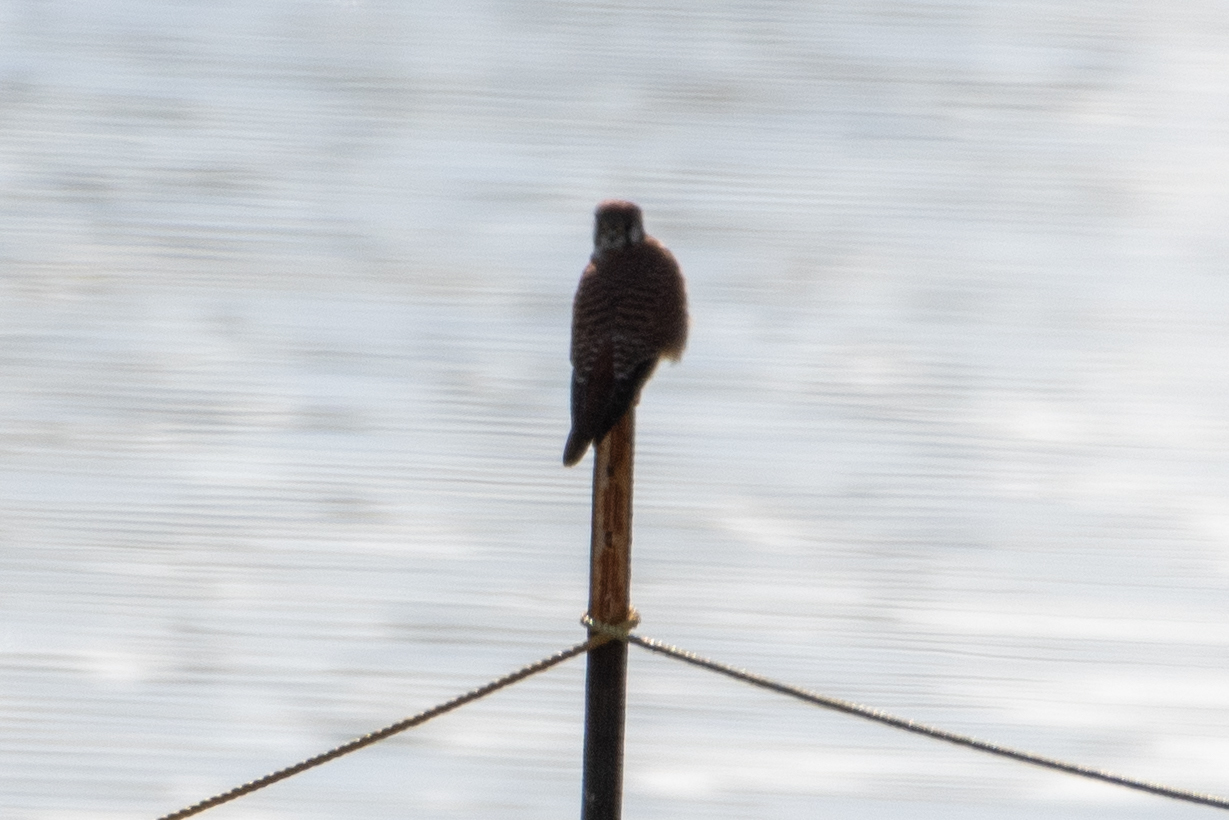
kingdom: Animalia
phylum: Chordata
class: Aves
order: Falconiformes
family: Falconidae
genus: Falco
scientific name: Falco sparverius
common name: American kestrel
